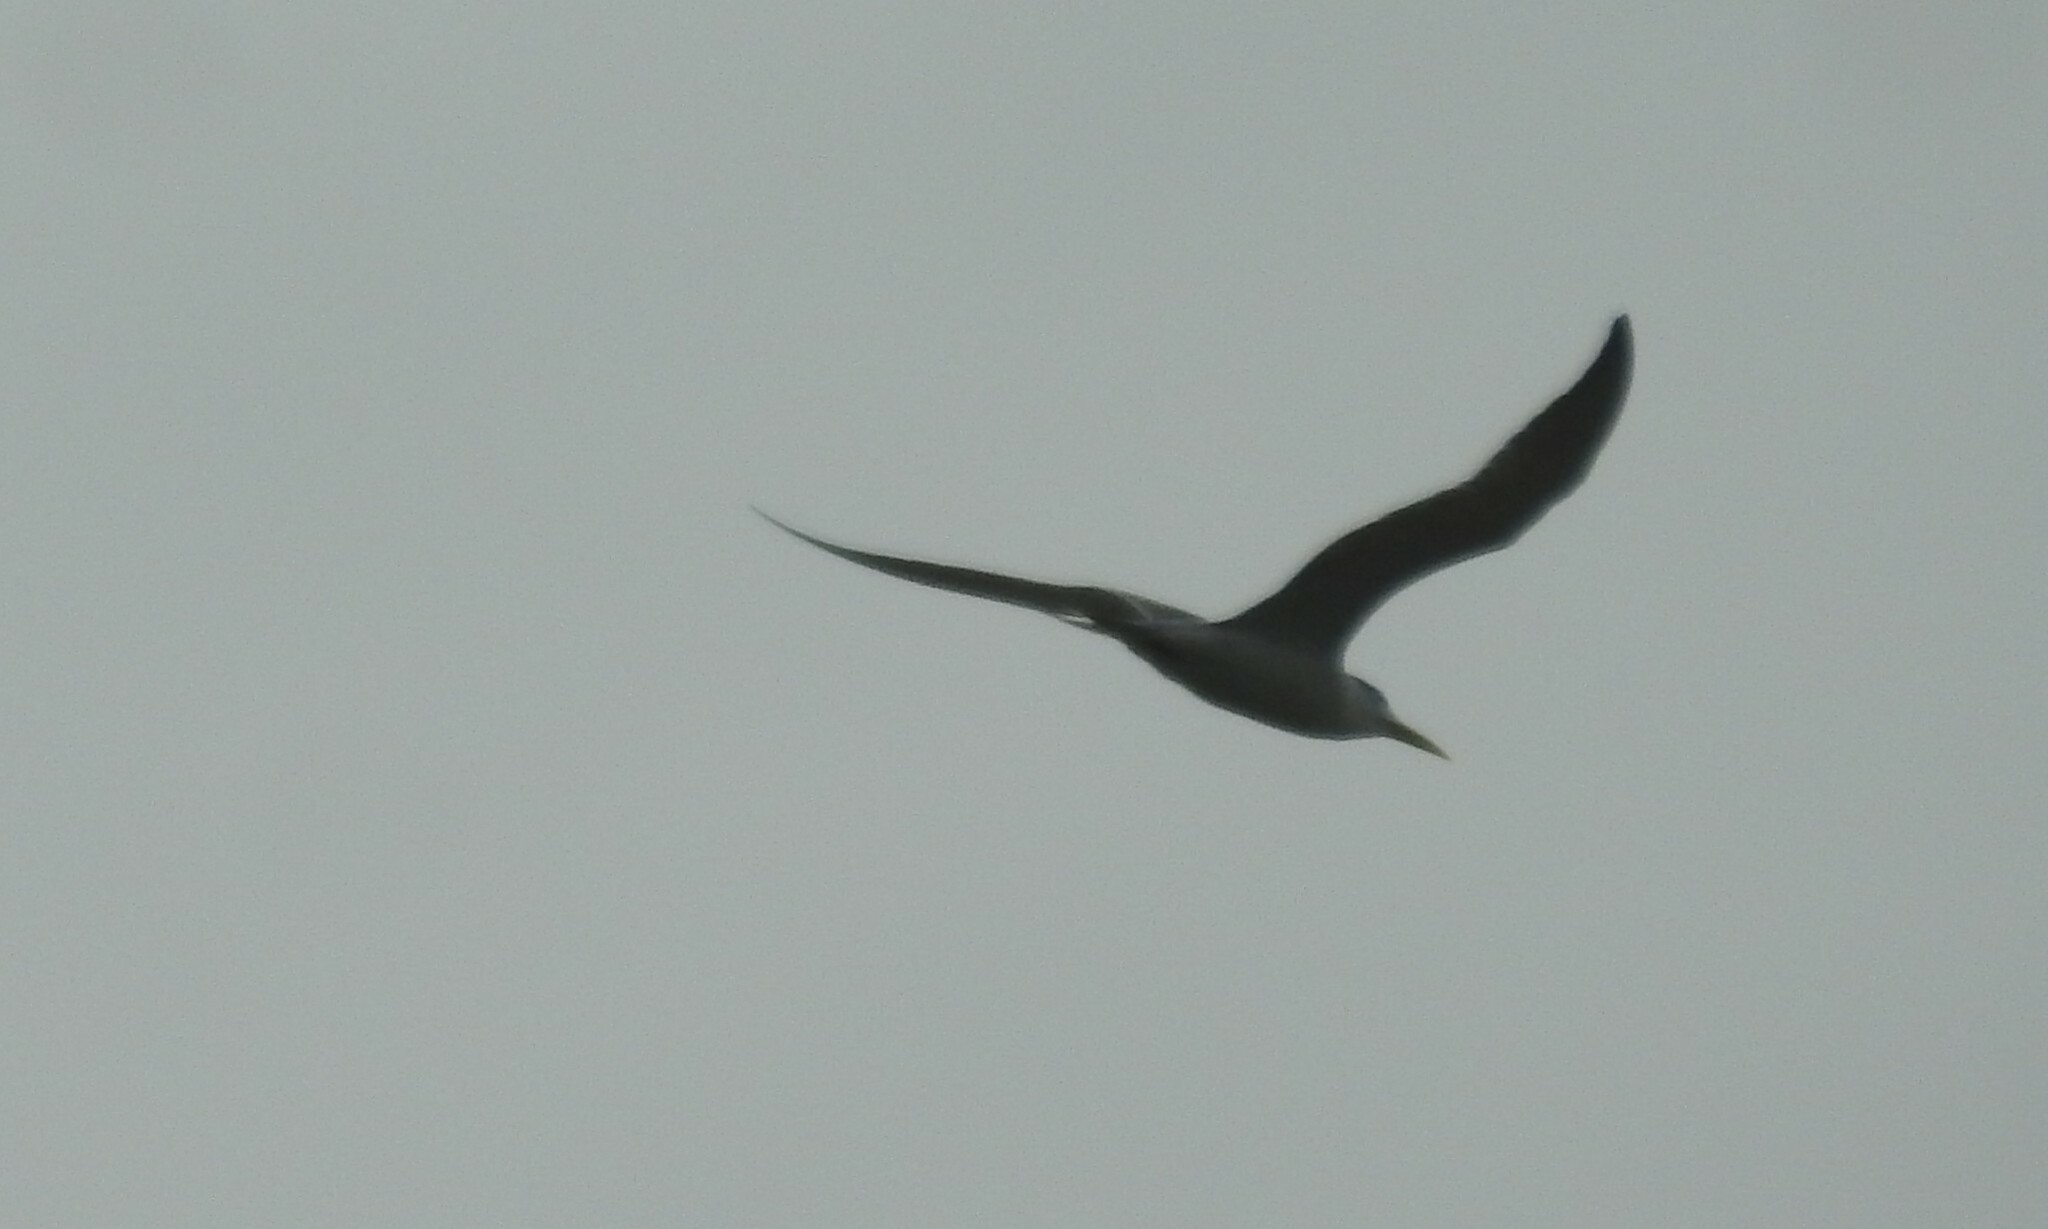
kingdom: Animalia
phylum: Chordata
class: Aves
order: Charadriiformes
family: Laridae
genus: Thalasseus
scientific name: Thalasseus bergii
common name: Greater crested tern
